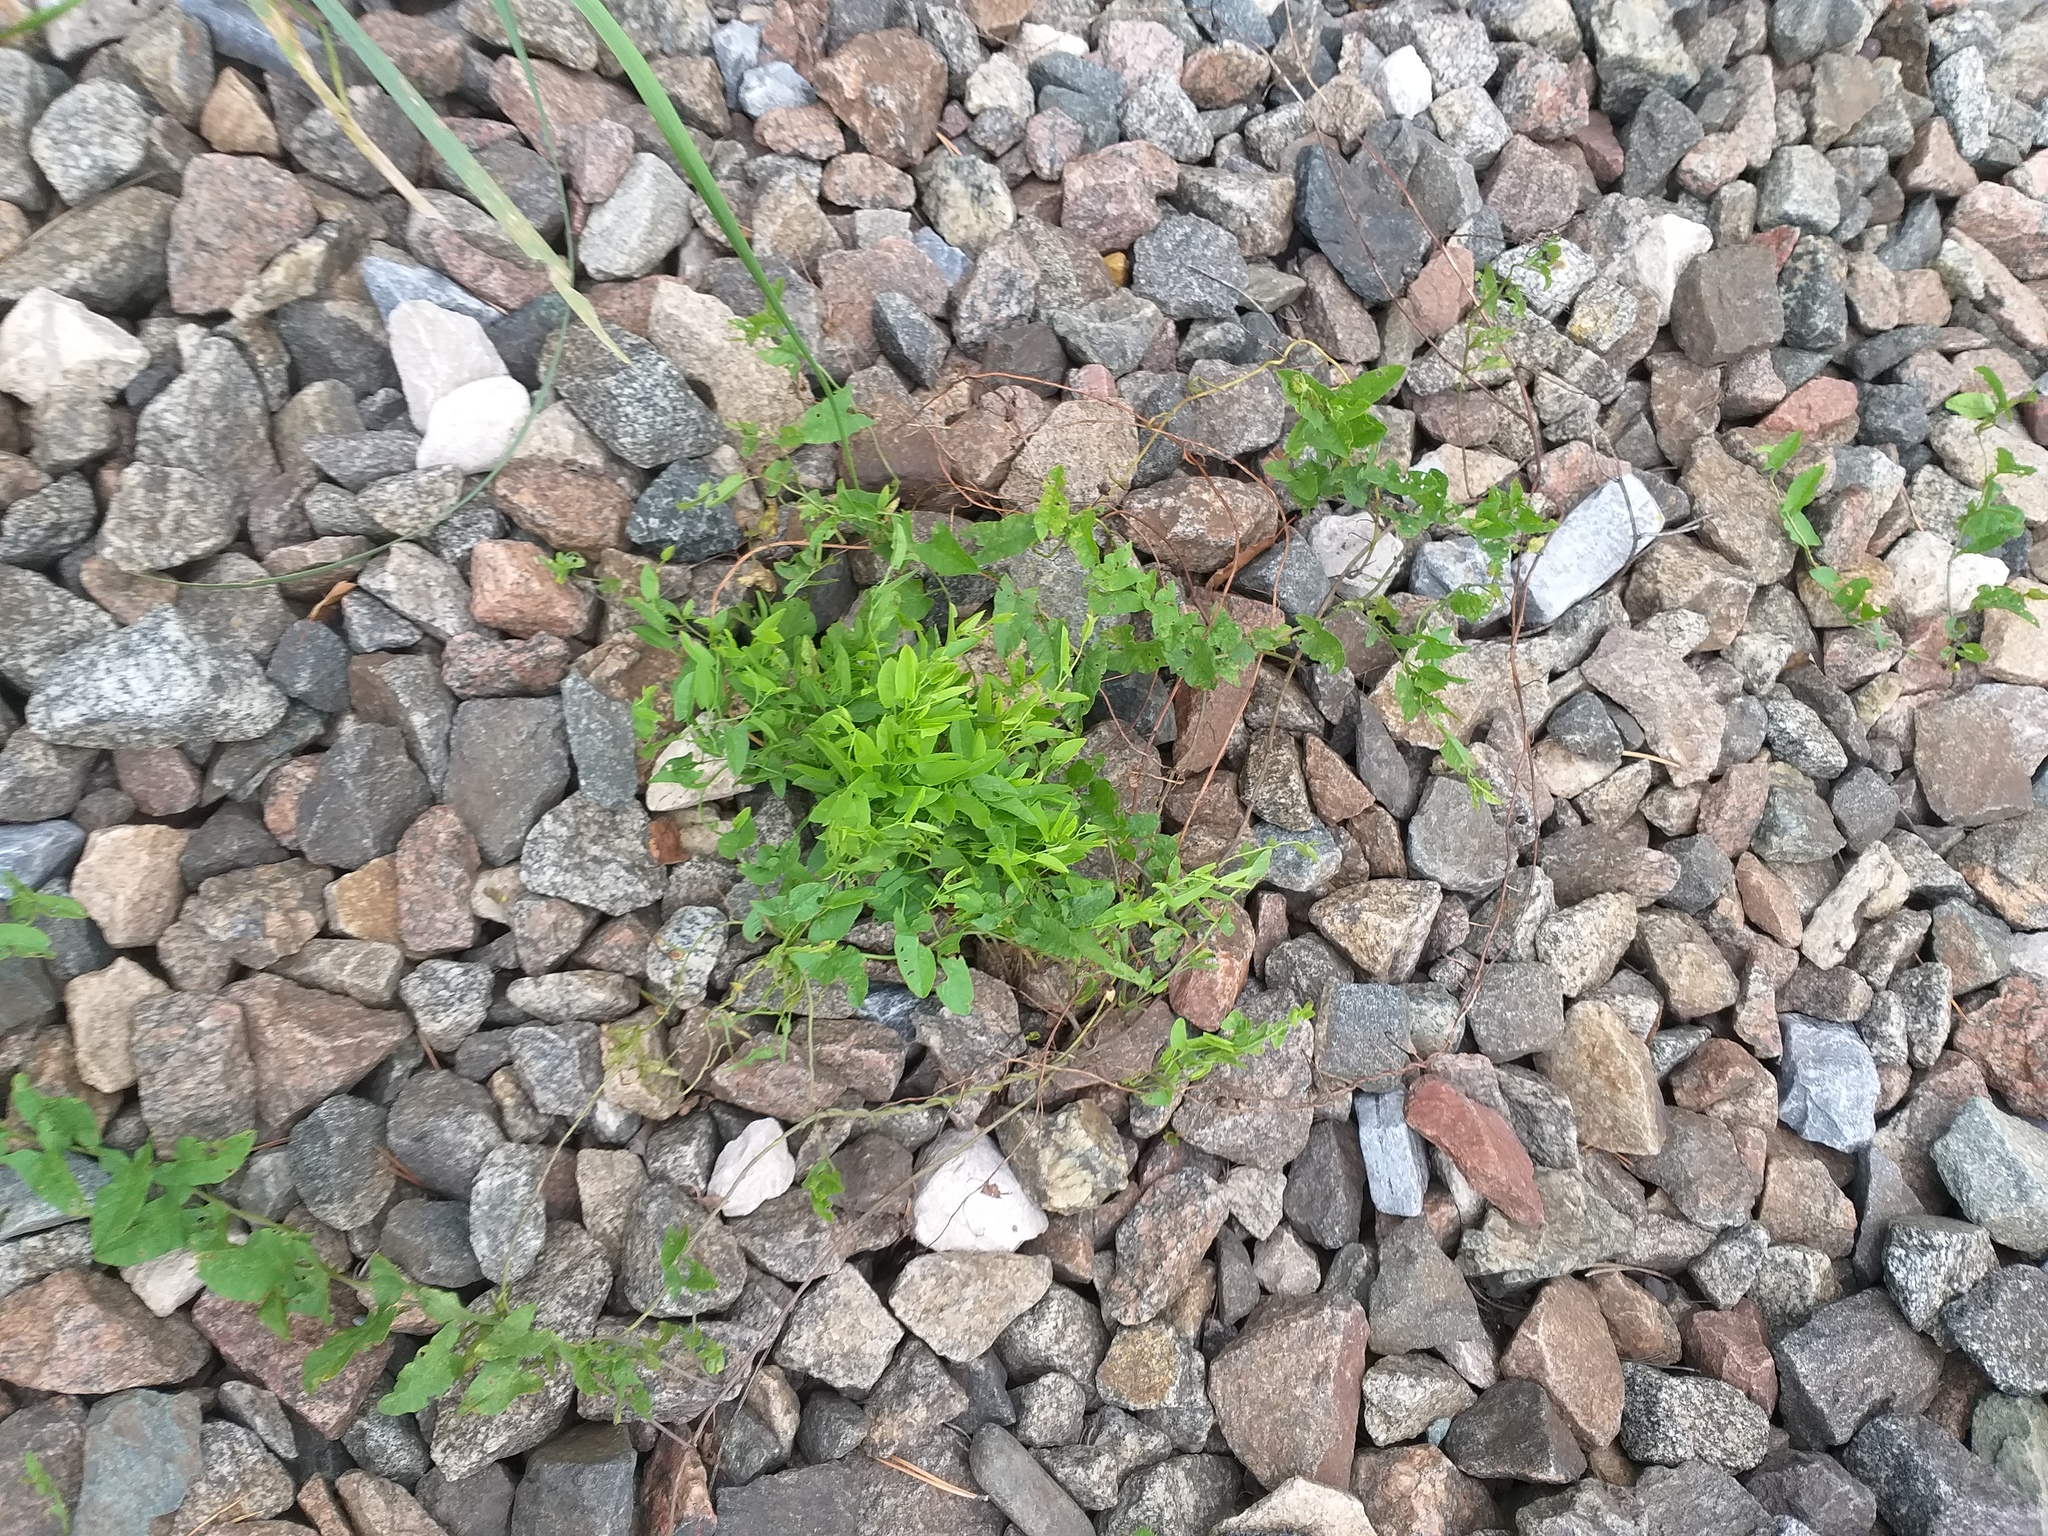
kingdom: Plantae
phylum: Tracheophyta
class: Magnoliopsida
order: Solanales
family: Convolvulaceae
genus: Convolvulus
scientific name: Convolvulus arvensis
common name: Field bindweed
